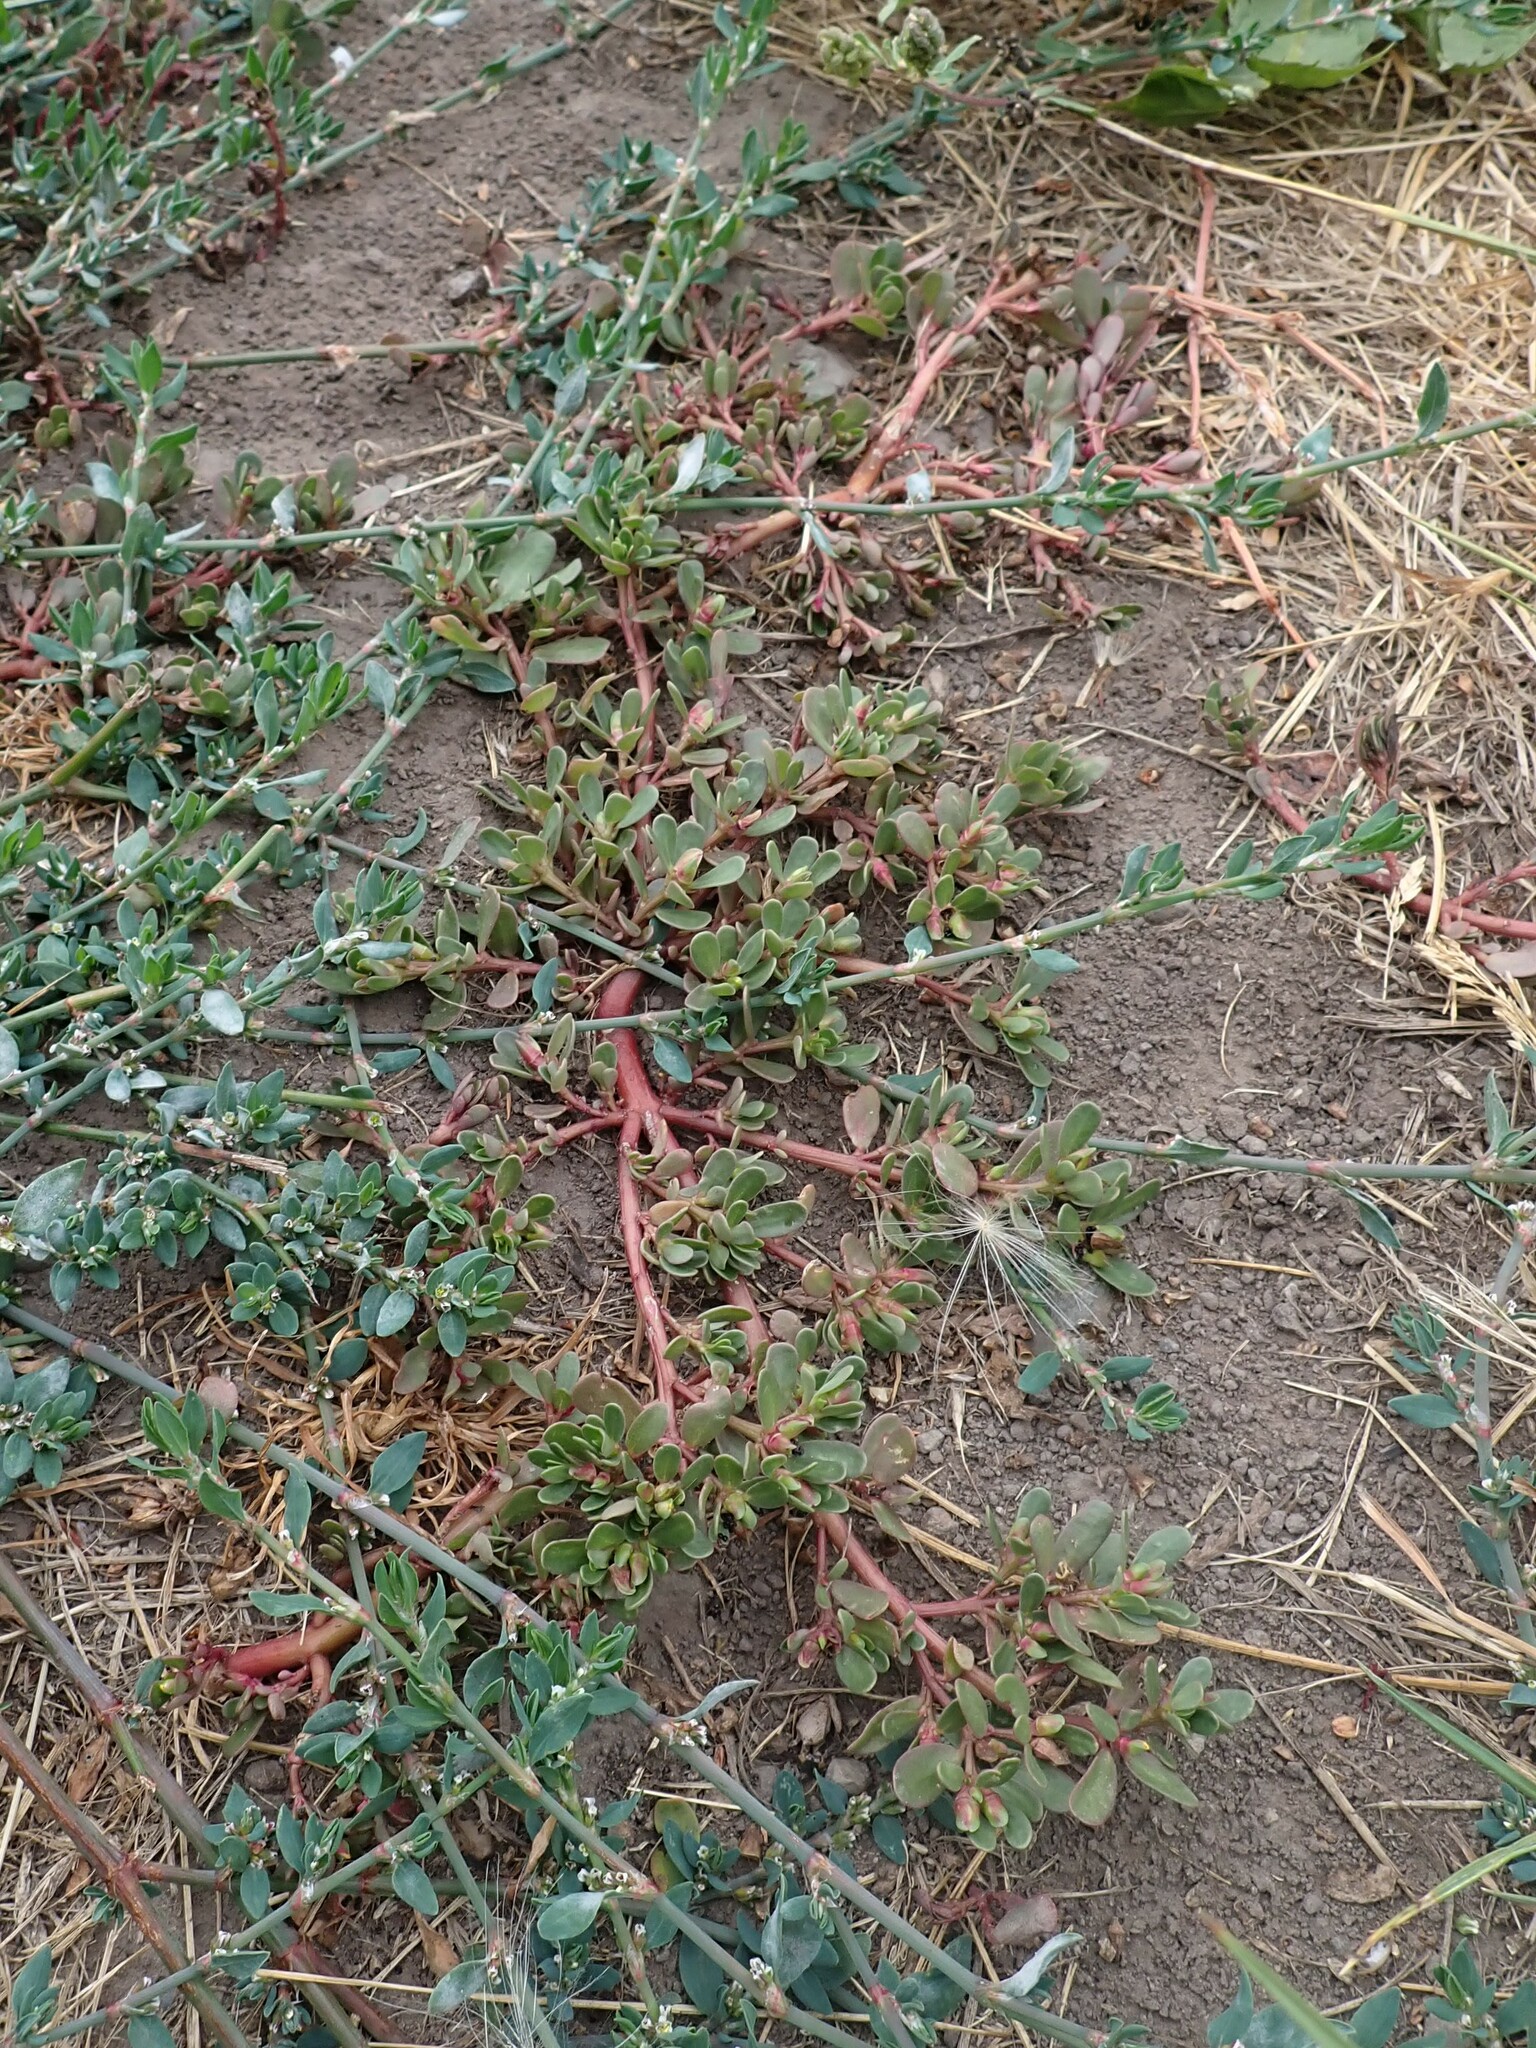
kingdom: Plantae
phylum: Tracheophyta
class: Magnoliopsida
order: Caryophyllales
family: Portulacaceae
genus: Portulaca
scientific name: Portulaca oleracea
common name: Common purslane
